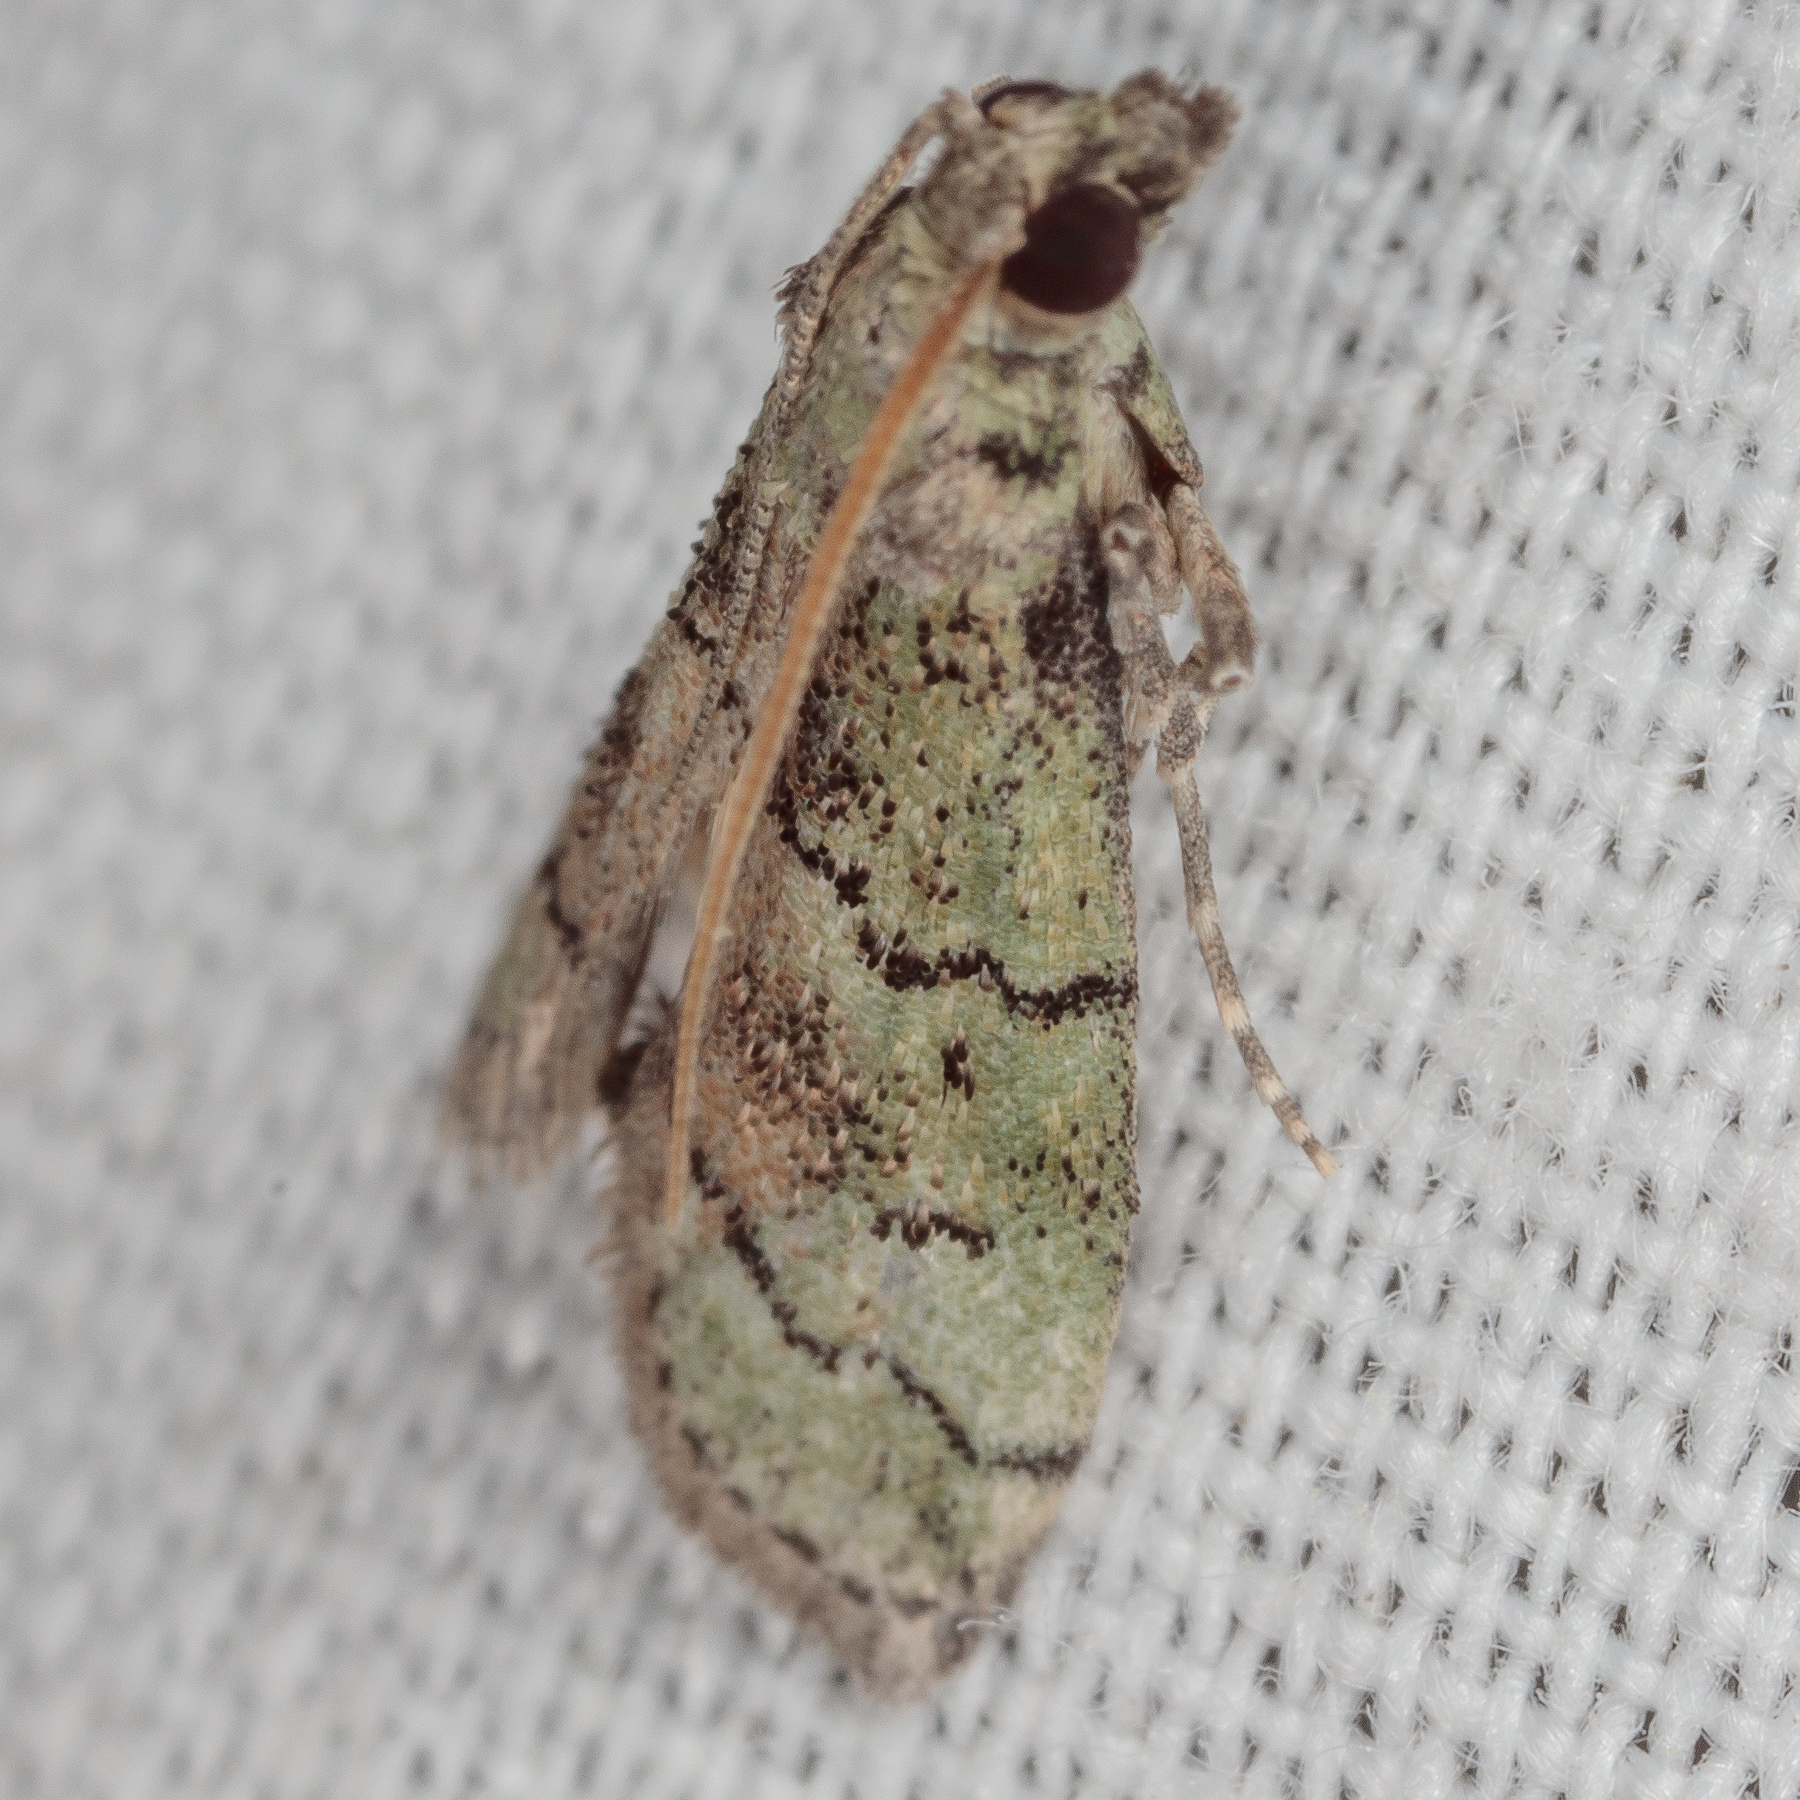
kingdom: Animalia
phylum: Arthropoda
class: Insecta
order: Lepidoptera
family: Pyralidae
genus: Cacotherapia
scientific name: Cacotherapia flexilinealis
